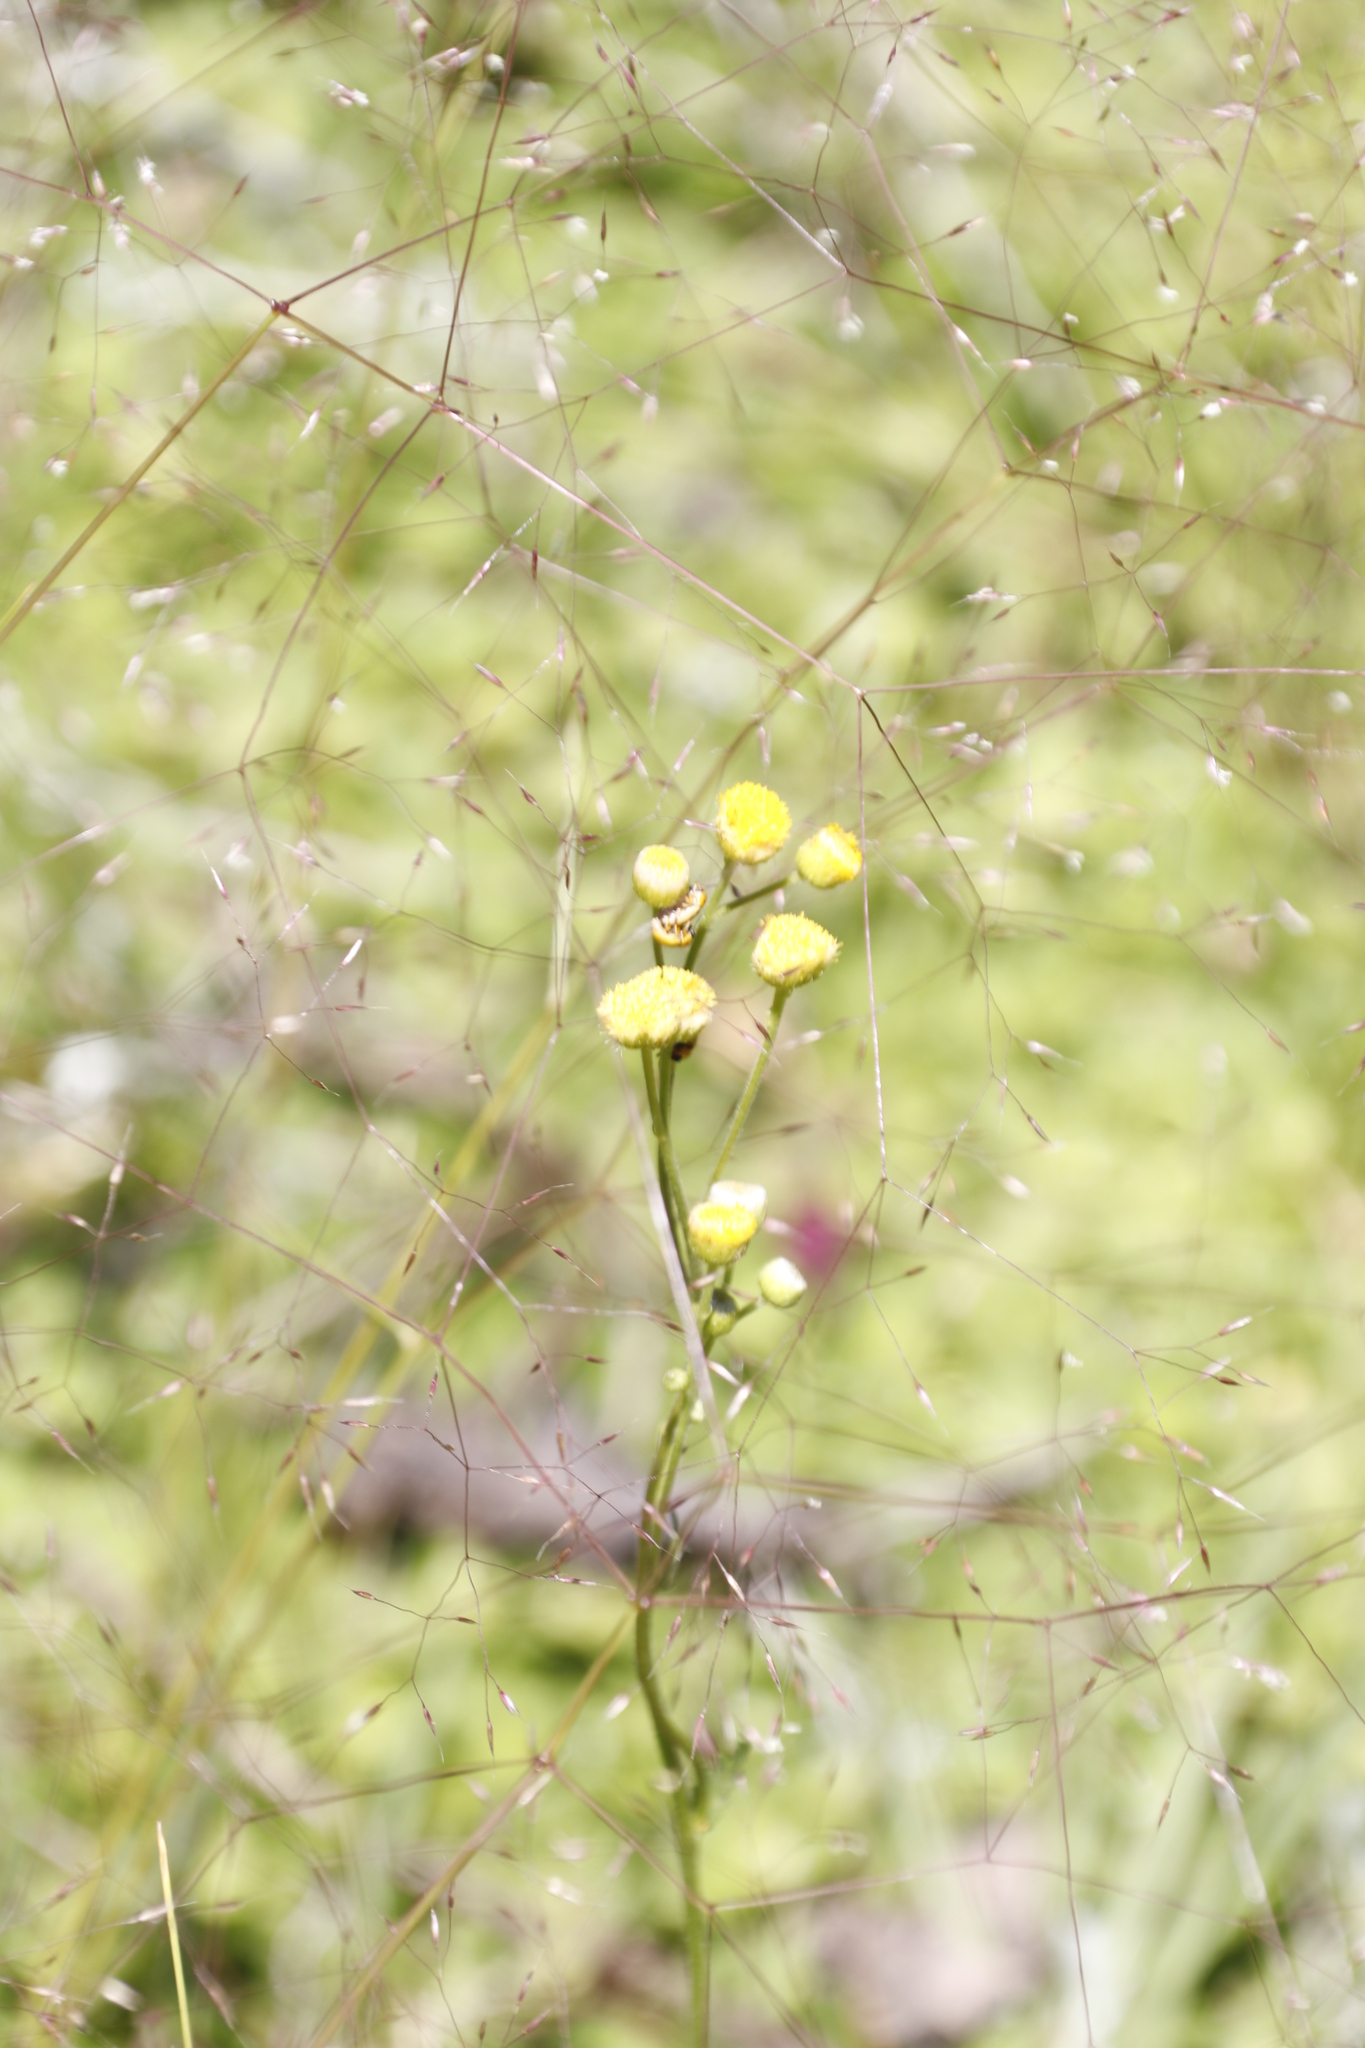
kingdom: Plantae
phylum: Tracheophyta
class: Magnoliopsida
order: Asterales
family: Asteraceae
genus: Nidorella
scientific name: Nidorella pinnata
